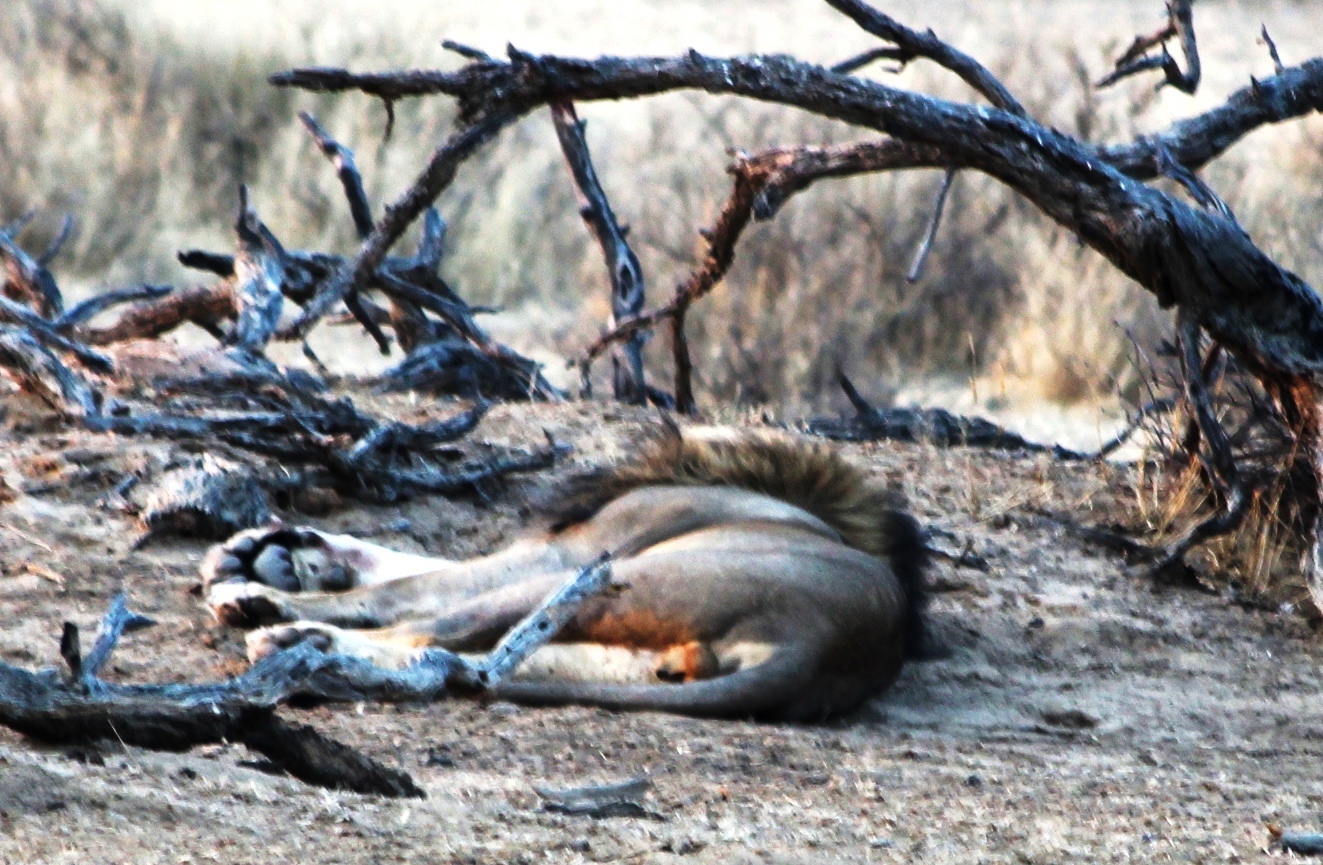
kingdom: Animalia
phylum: Chordata
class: Mammalia
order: Carnivora
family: Felidae
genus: Panthera
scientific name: Panthera leo
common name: Lion
